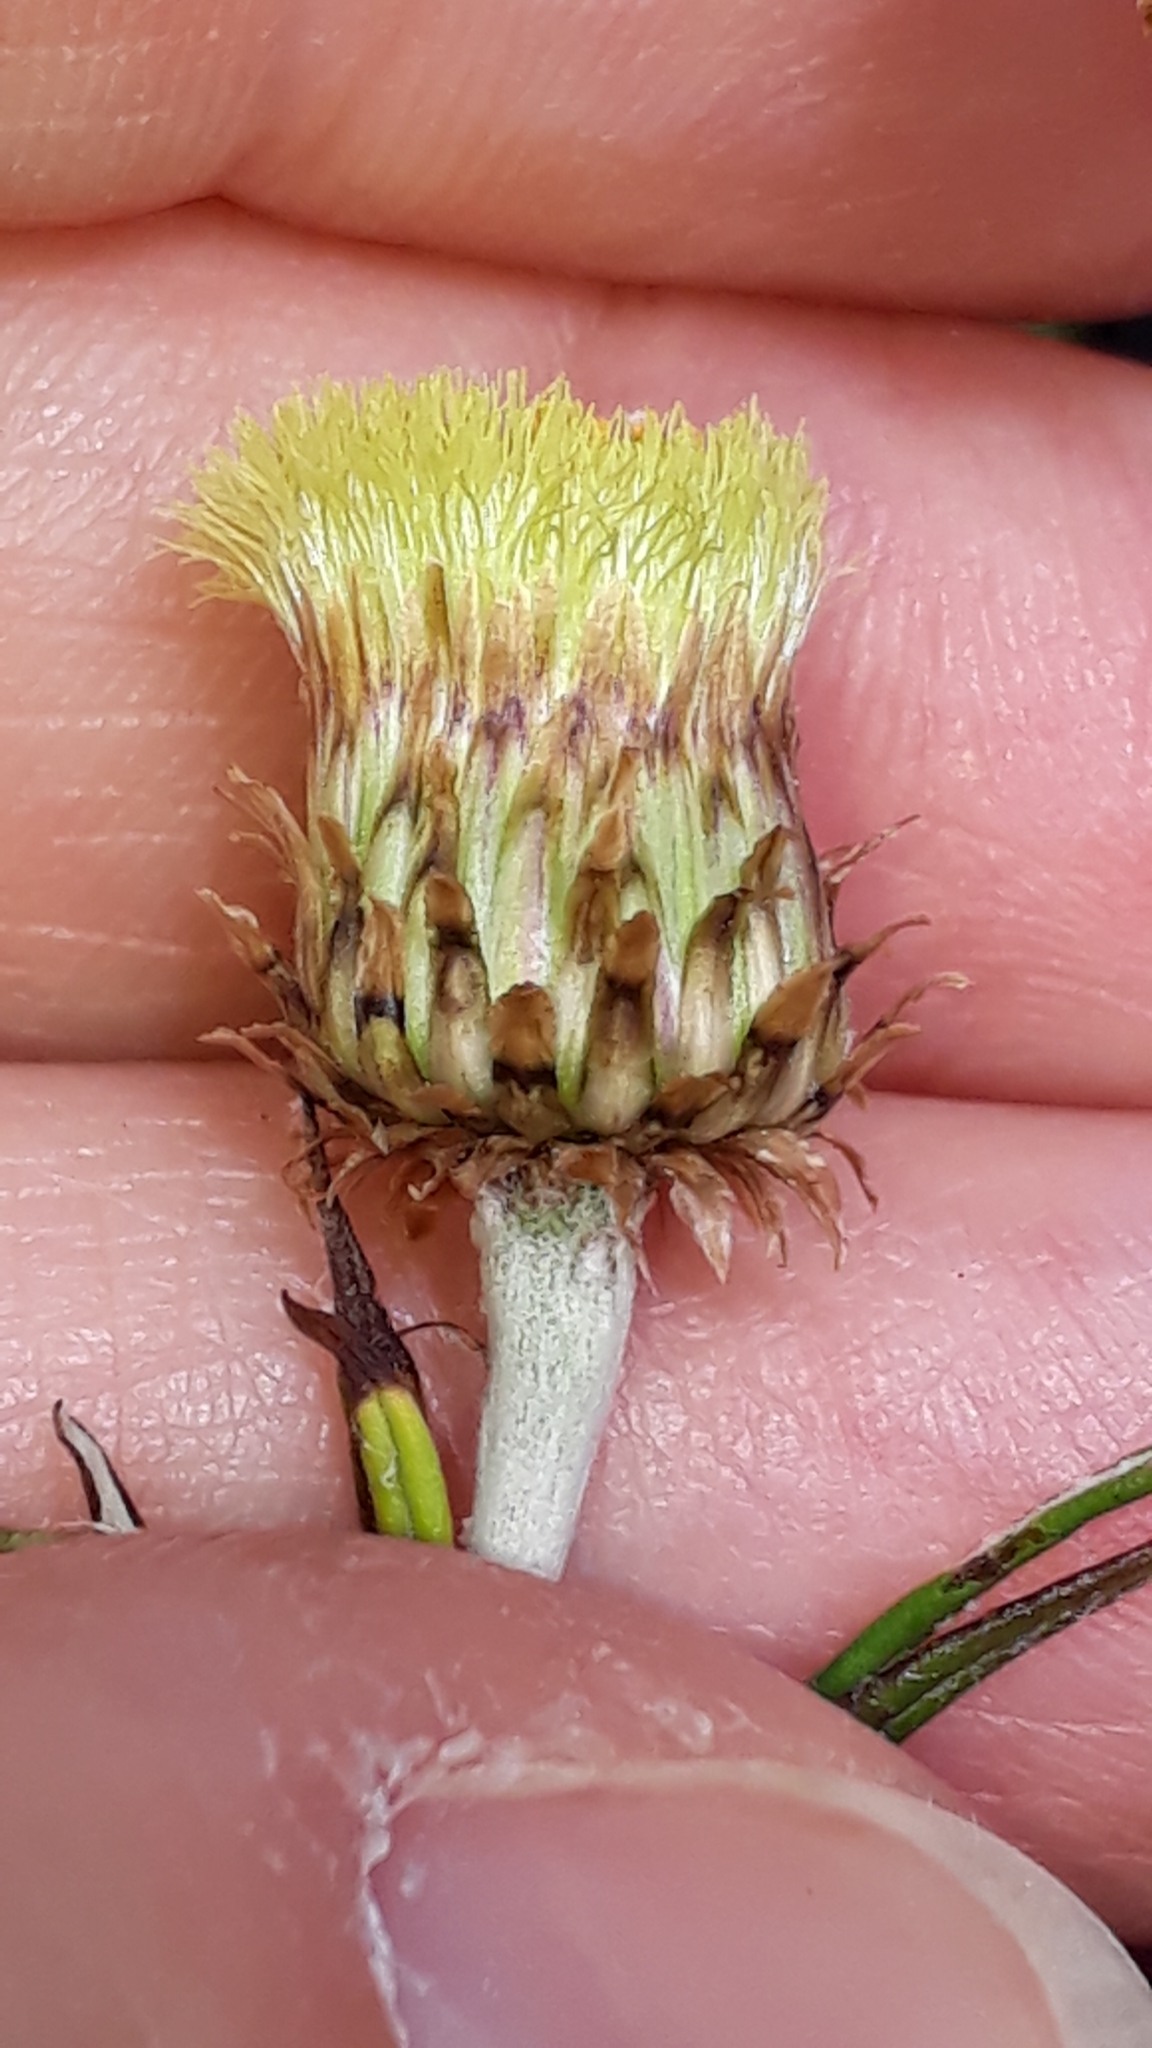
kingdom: Plantae
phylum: Tracheophyta
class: Magnoliopsida
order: Asterales
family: Asteraceae
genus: Phagnalon
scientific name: Phagnalon saxatile
